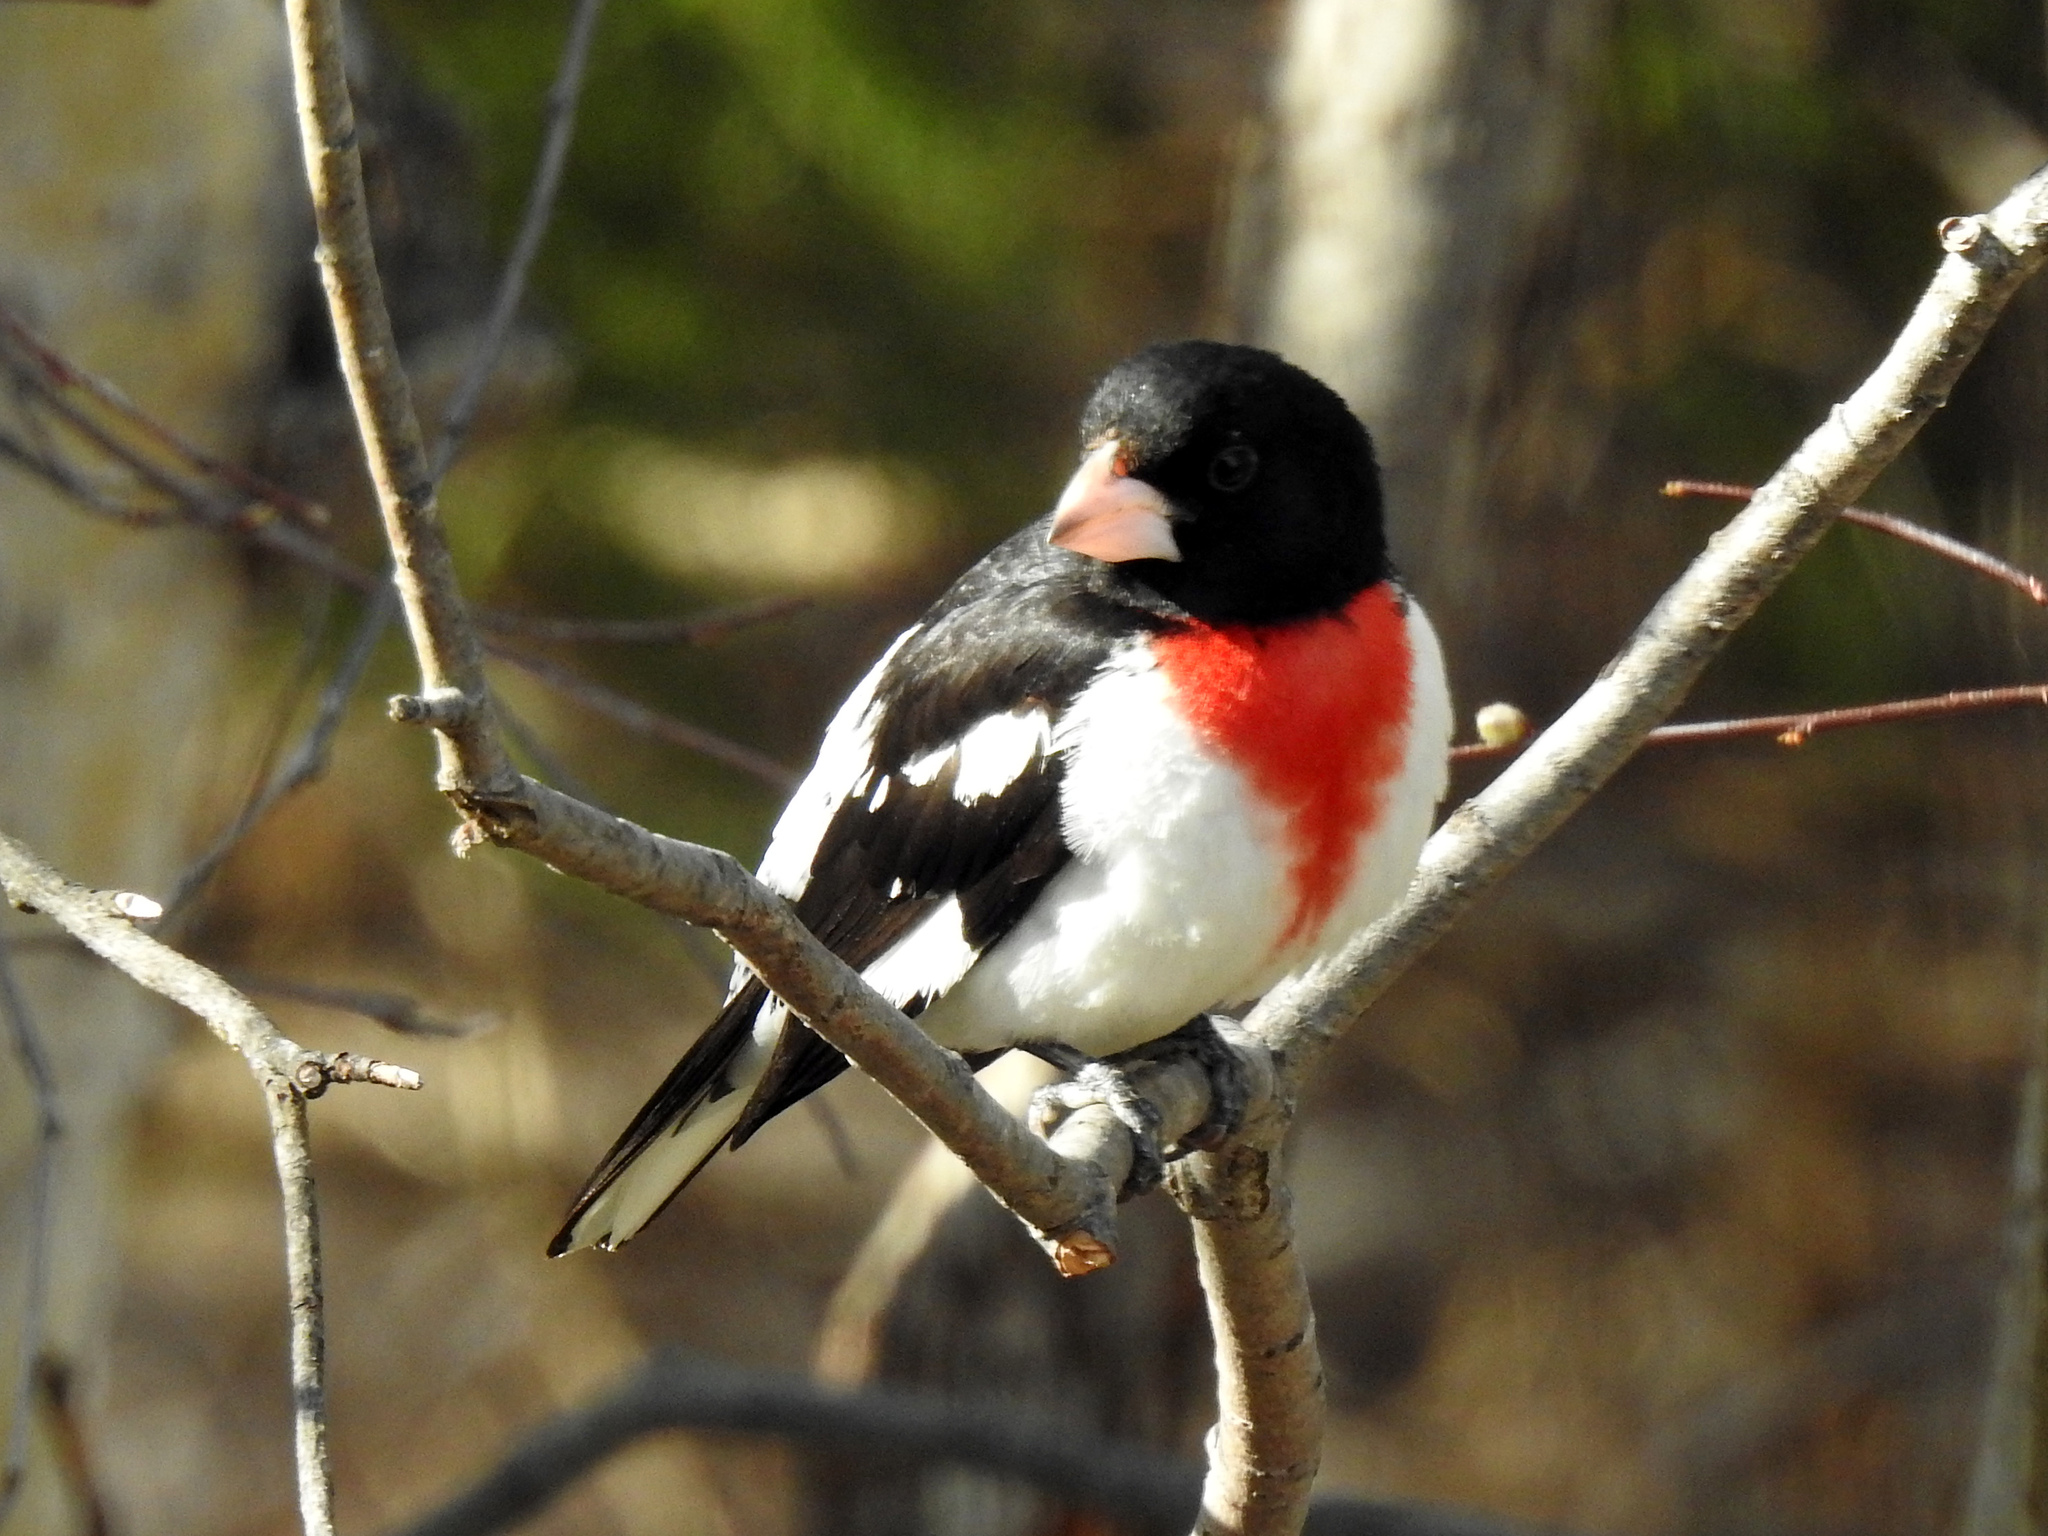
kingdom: Animalia
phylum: Chordata
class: Aves
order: Passeriformes
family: Cardinalidae
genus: Pheucticus
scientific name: Pheucticus ludovicianus
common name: Rose-breasted grosbeak
